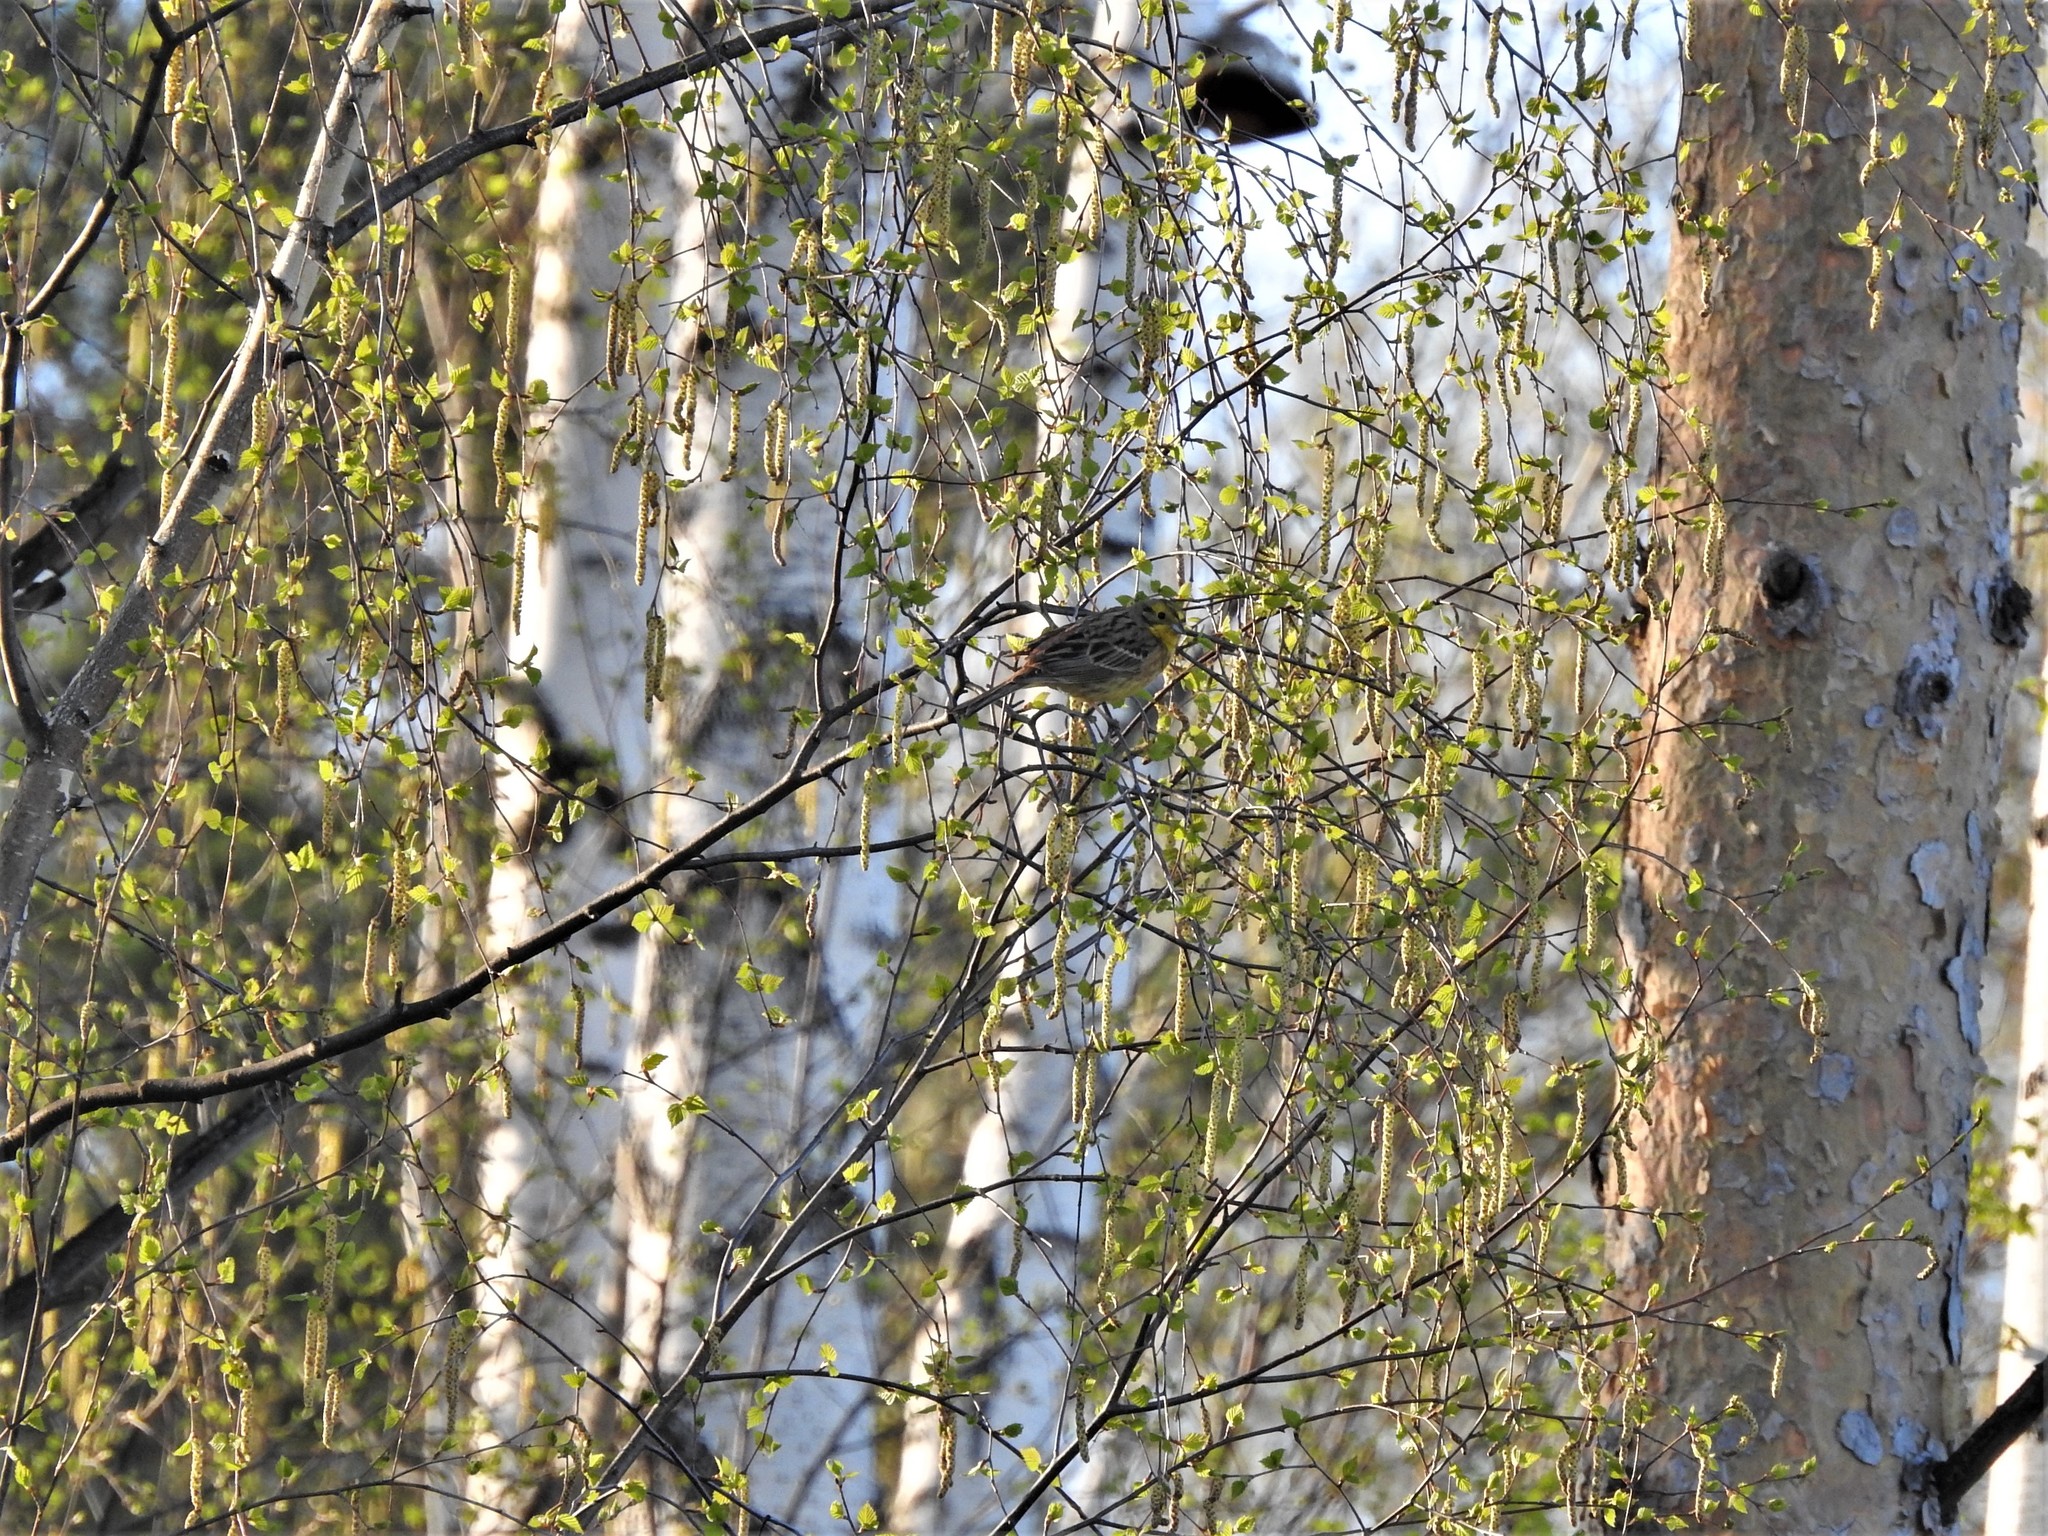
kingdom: Animalia
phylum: Chordata
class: Aves
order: Passeriformes
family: Emberizidae
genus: Emberiza
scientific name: Emberiza citrinella
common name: Yellowhammer
